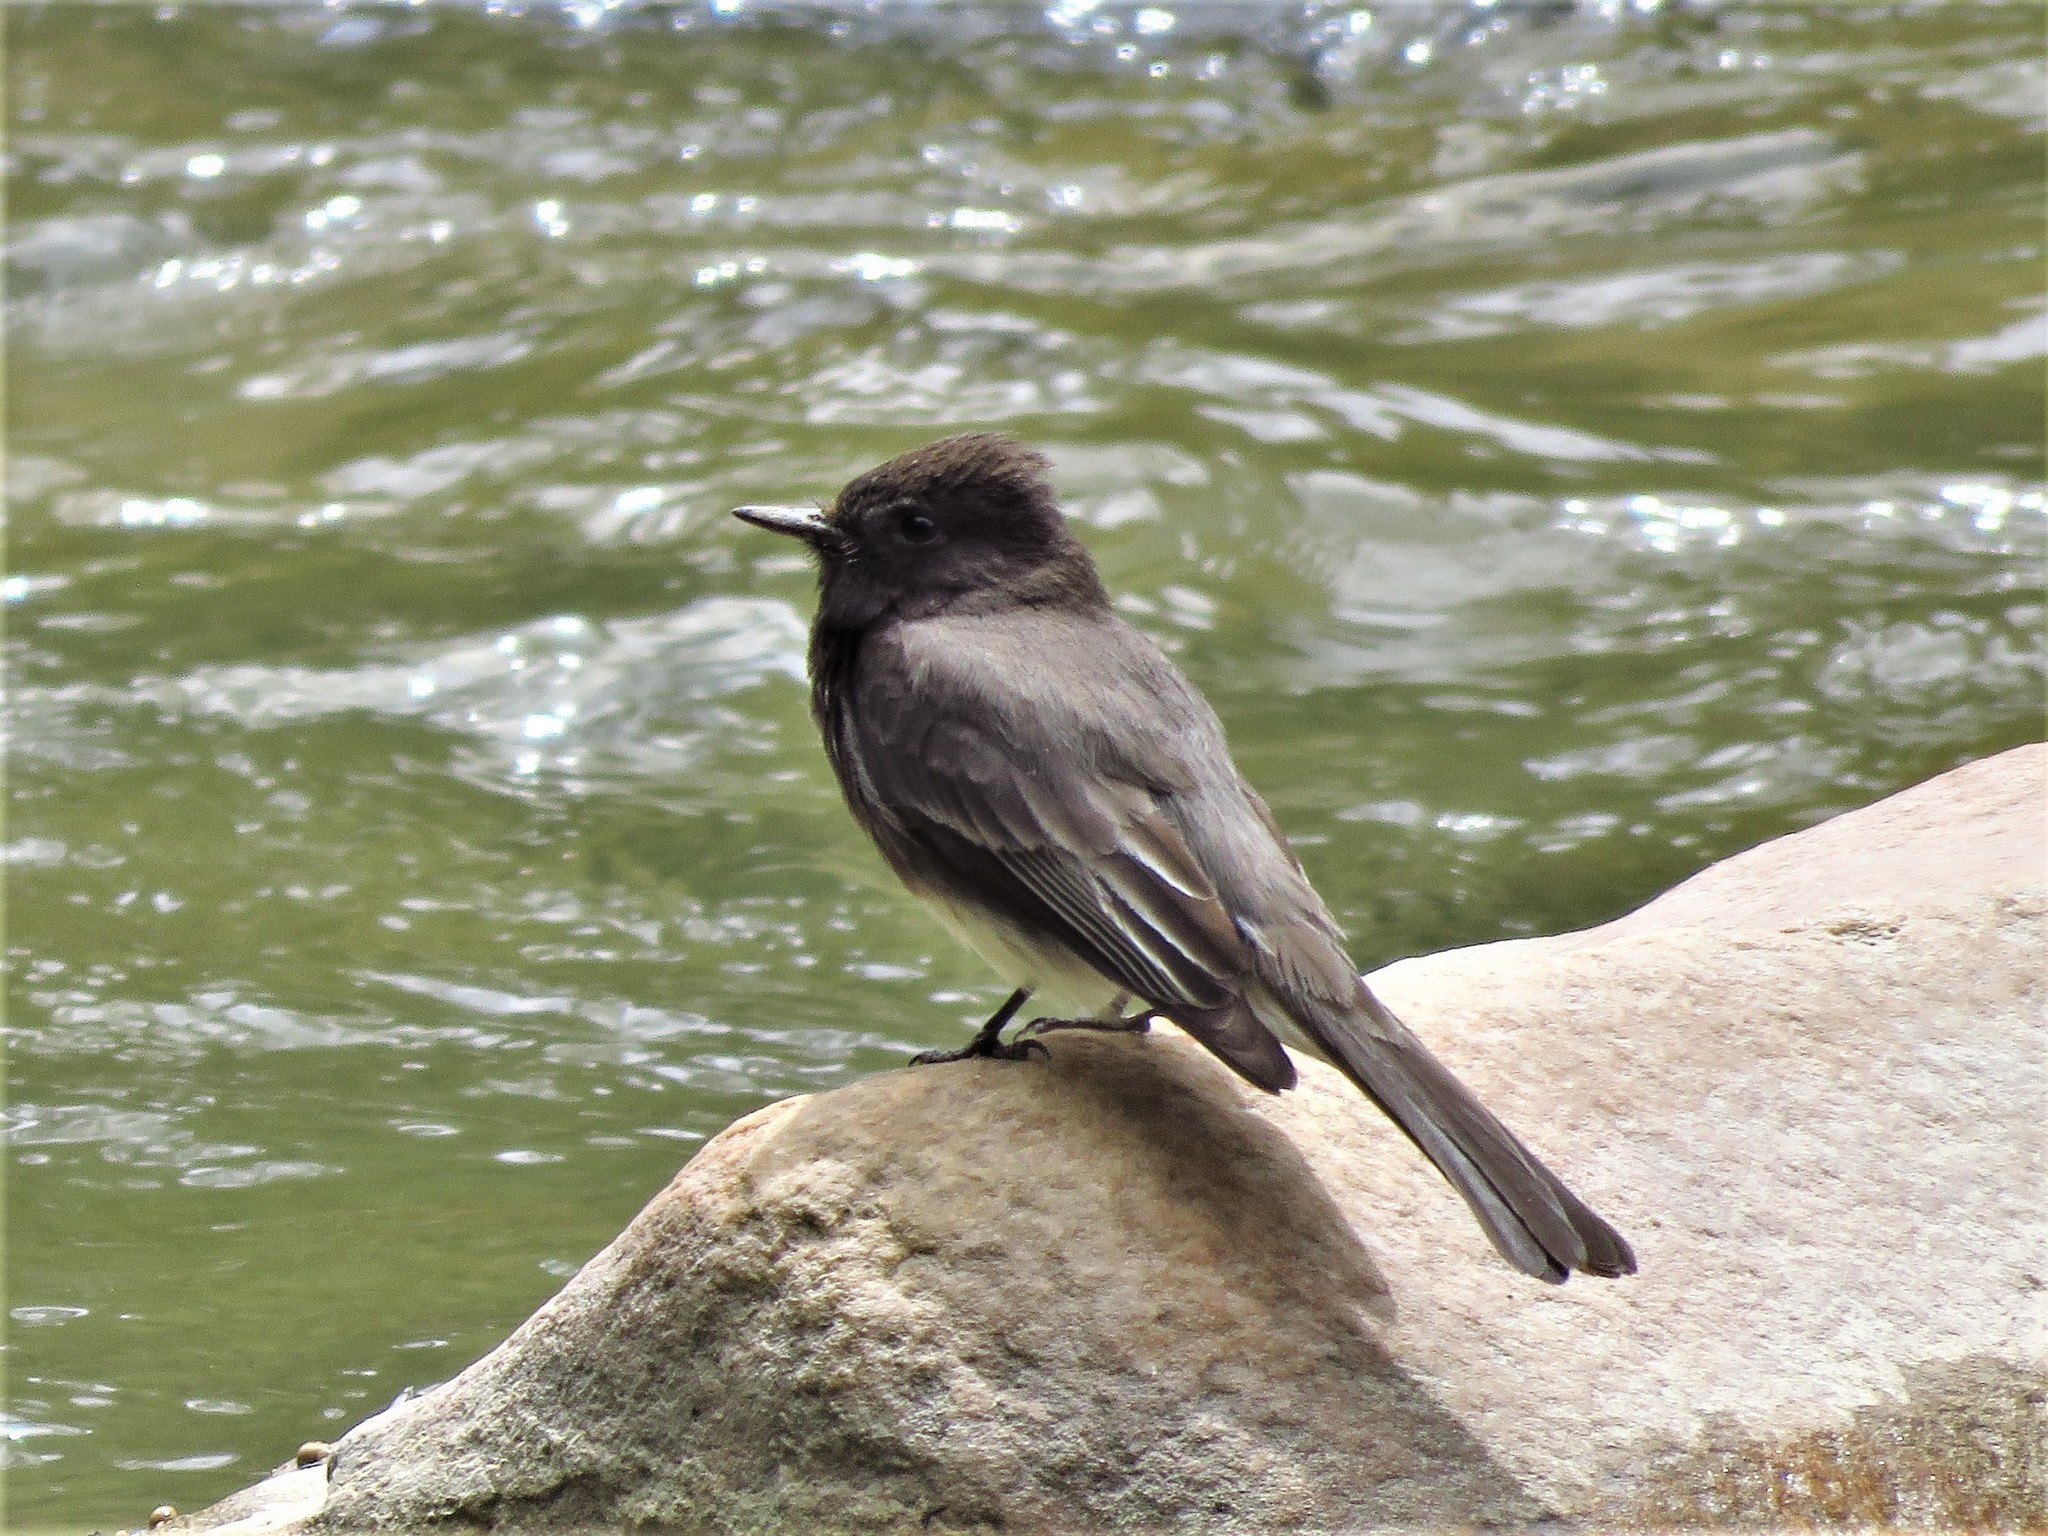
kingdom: Animalia
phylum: Chordata
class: Aves
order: Passeriformes
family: Tyrannidae
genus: Sayornis
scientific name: Sayornis nigricans
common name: Black phoebe
